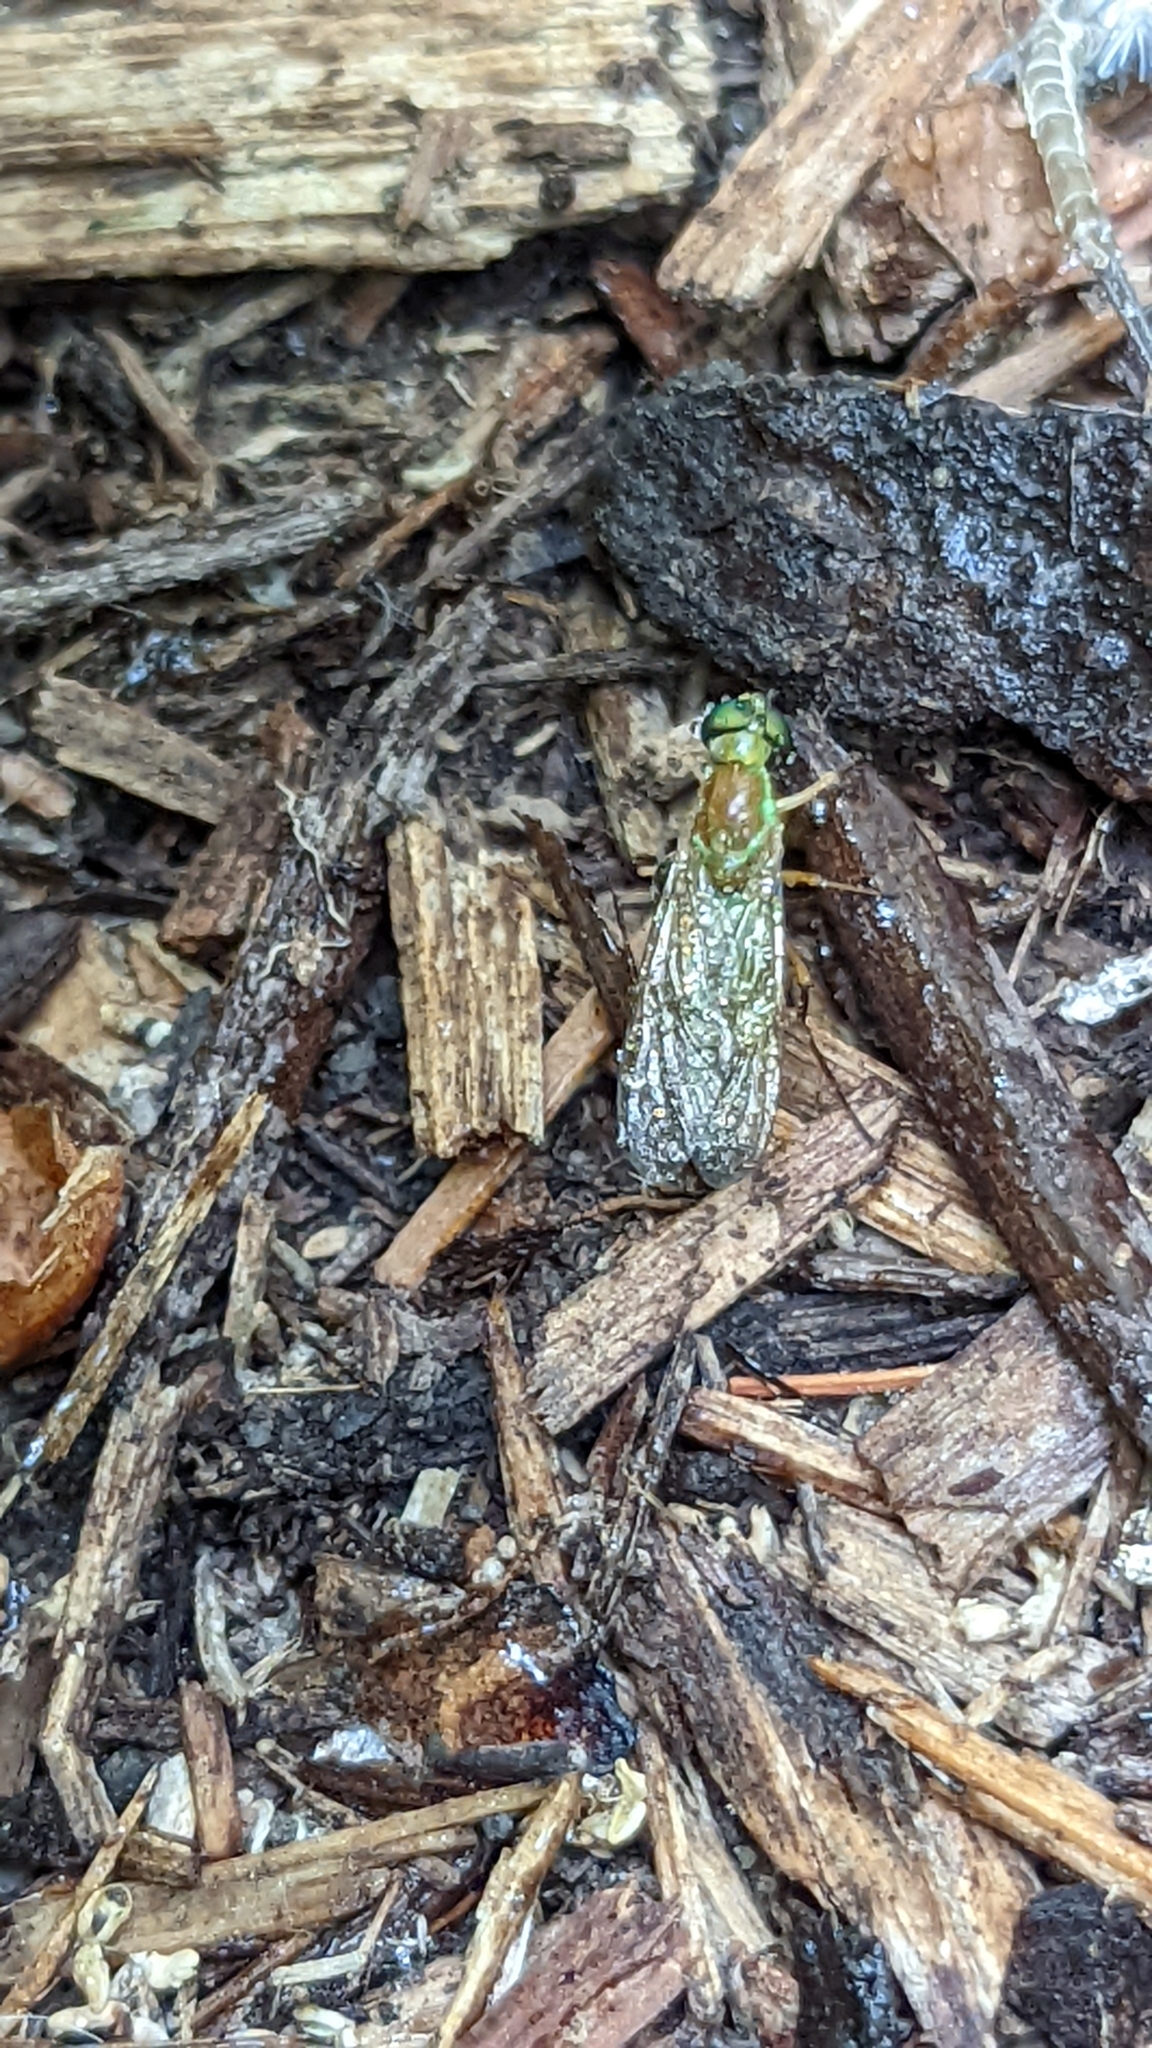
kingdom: Animalia
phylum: Arthropoda
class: Insecta
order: Diptera
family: Stratiomyidae
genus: Ptecticus
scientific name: Ptecticus trivittatus
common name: Compost fly
